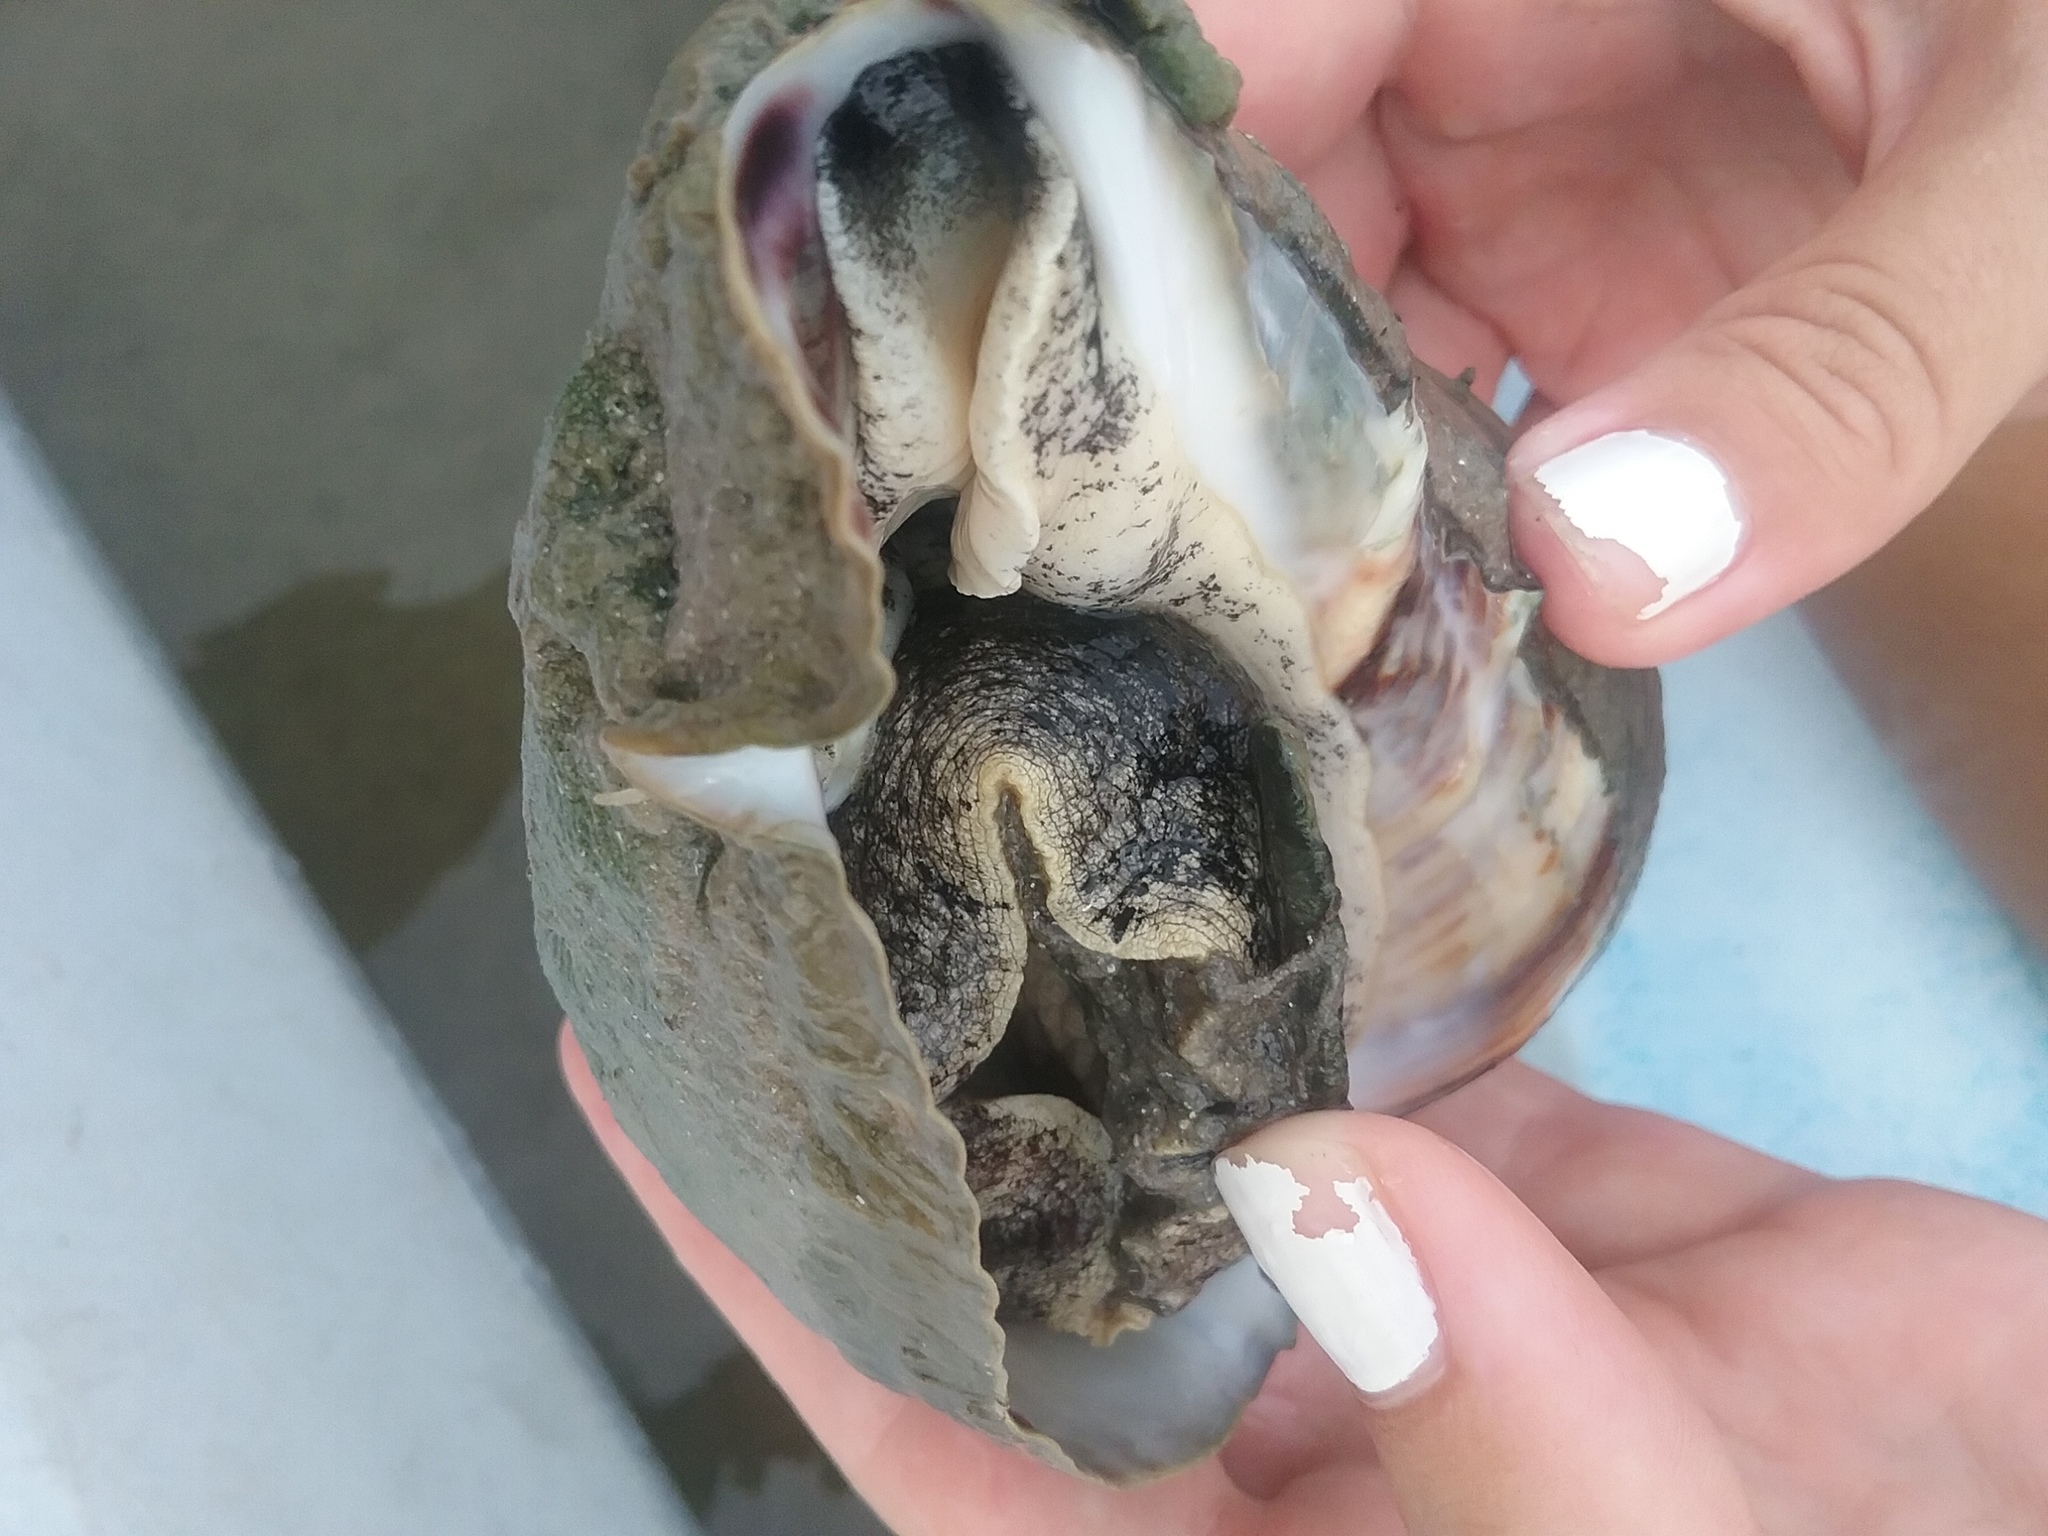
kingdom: Animalia
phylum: Mollusca
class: Gastropoda
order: Neogastropoda
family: Melongenidae
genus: Melongena
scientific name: Melongena corona
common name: American crown conch
